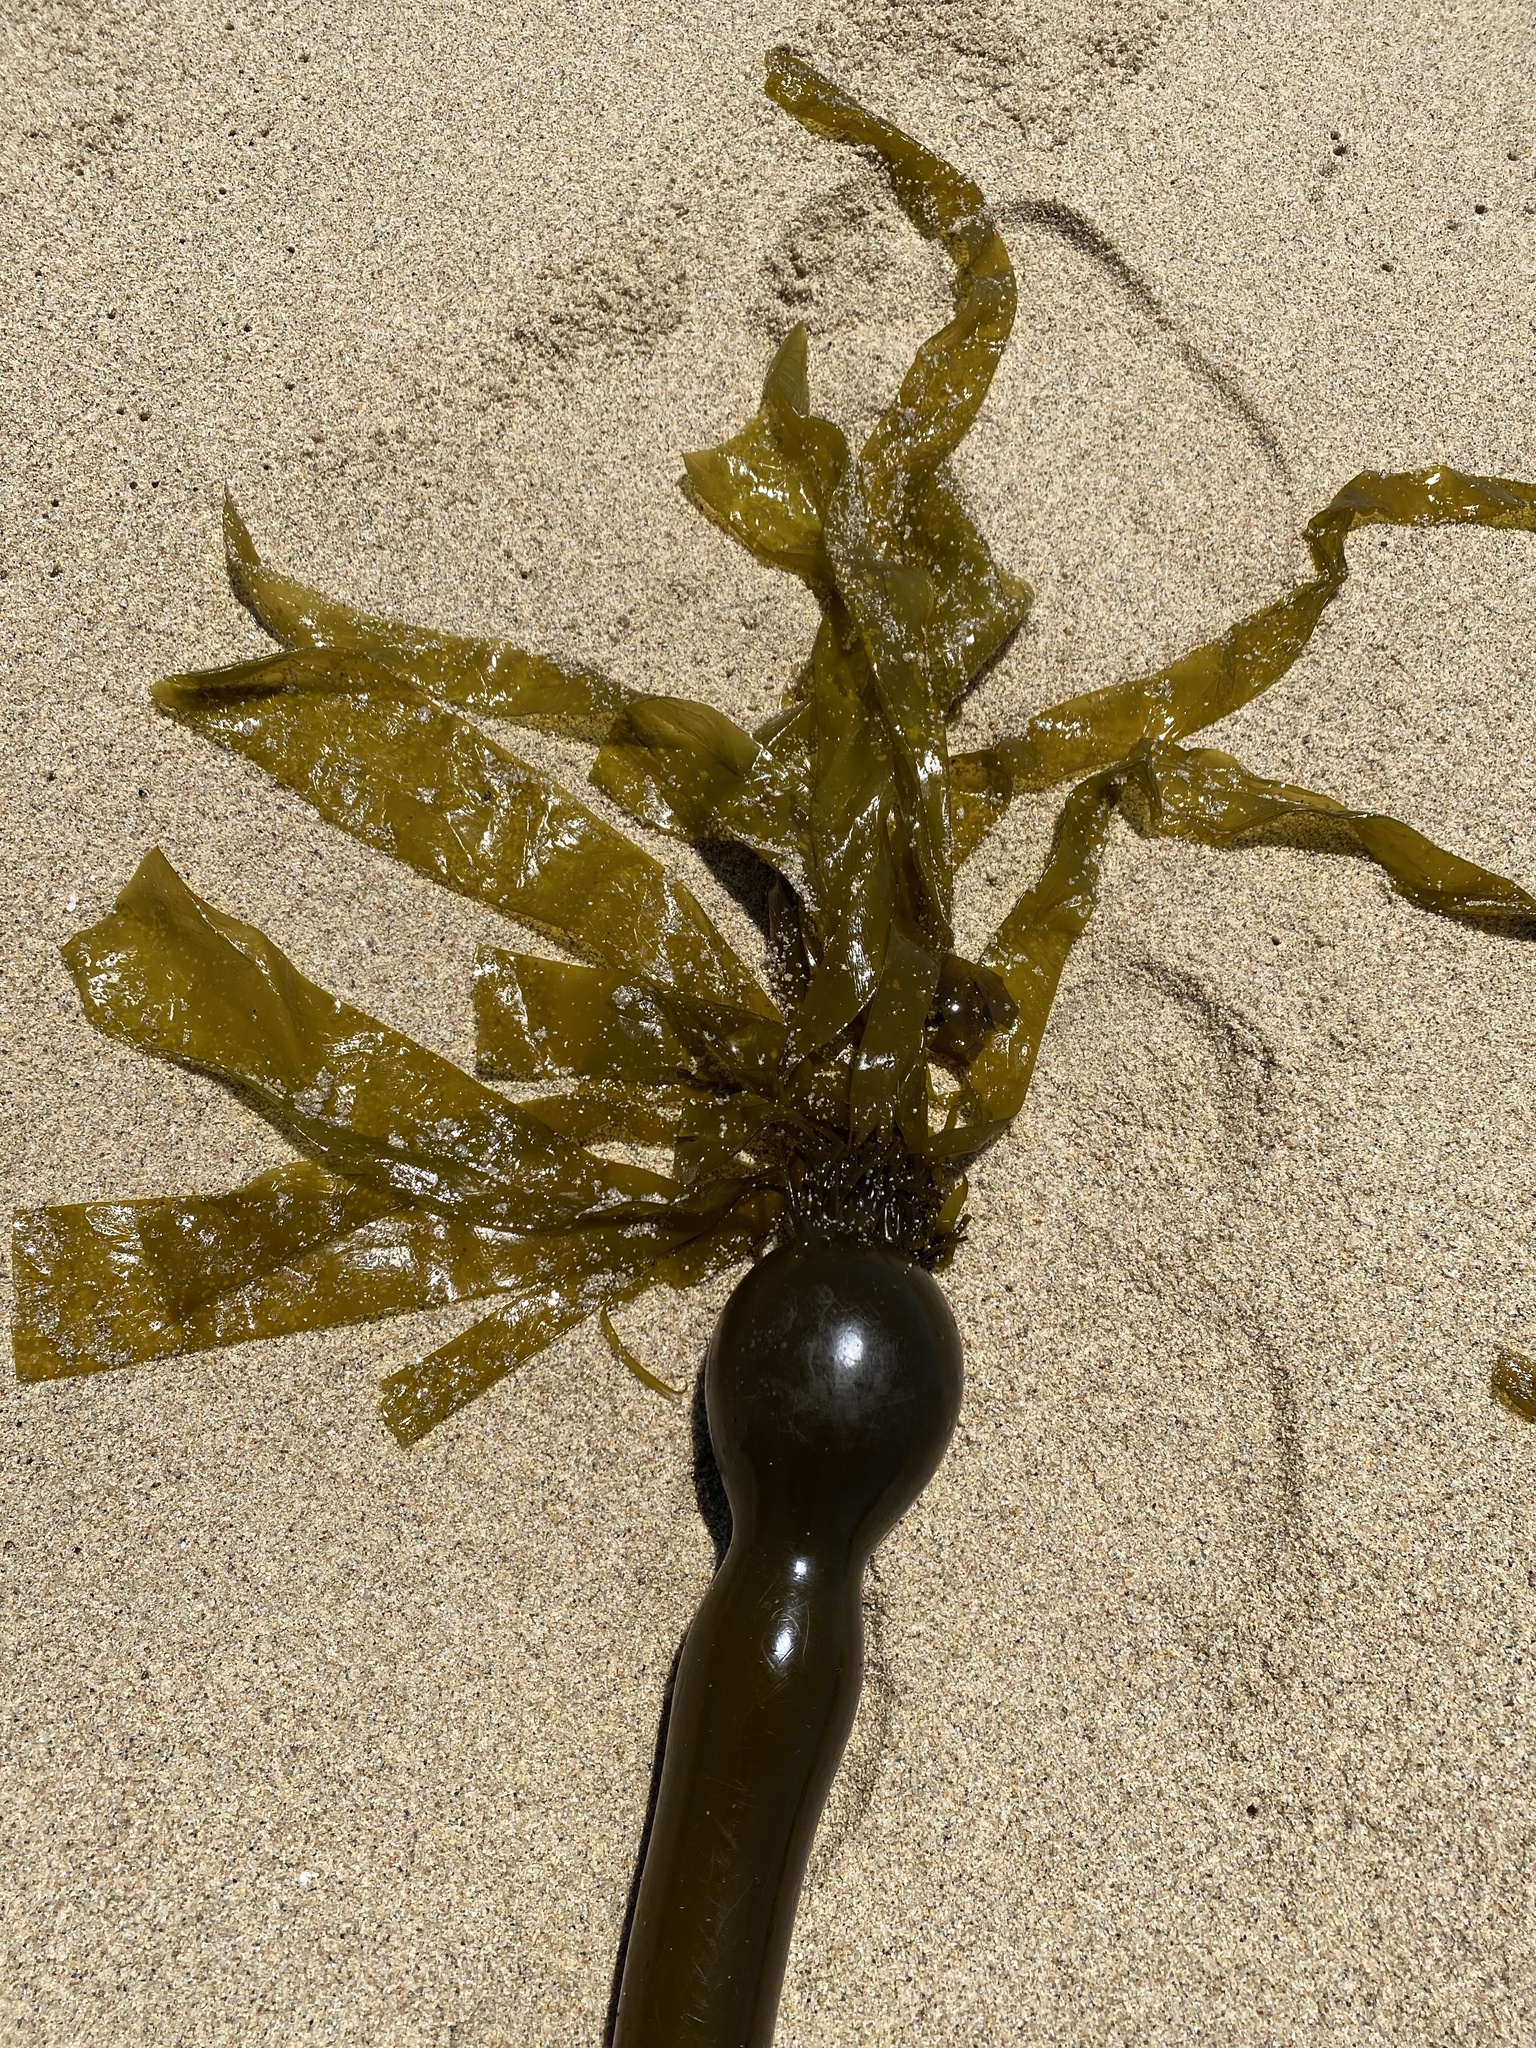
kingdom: Chromista
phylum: Ochrophyta
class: Phaeophyceae
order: Laminariales
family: Laminariaceae
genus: Nereocystis
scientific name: Nereocystis luetkeana
